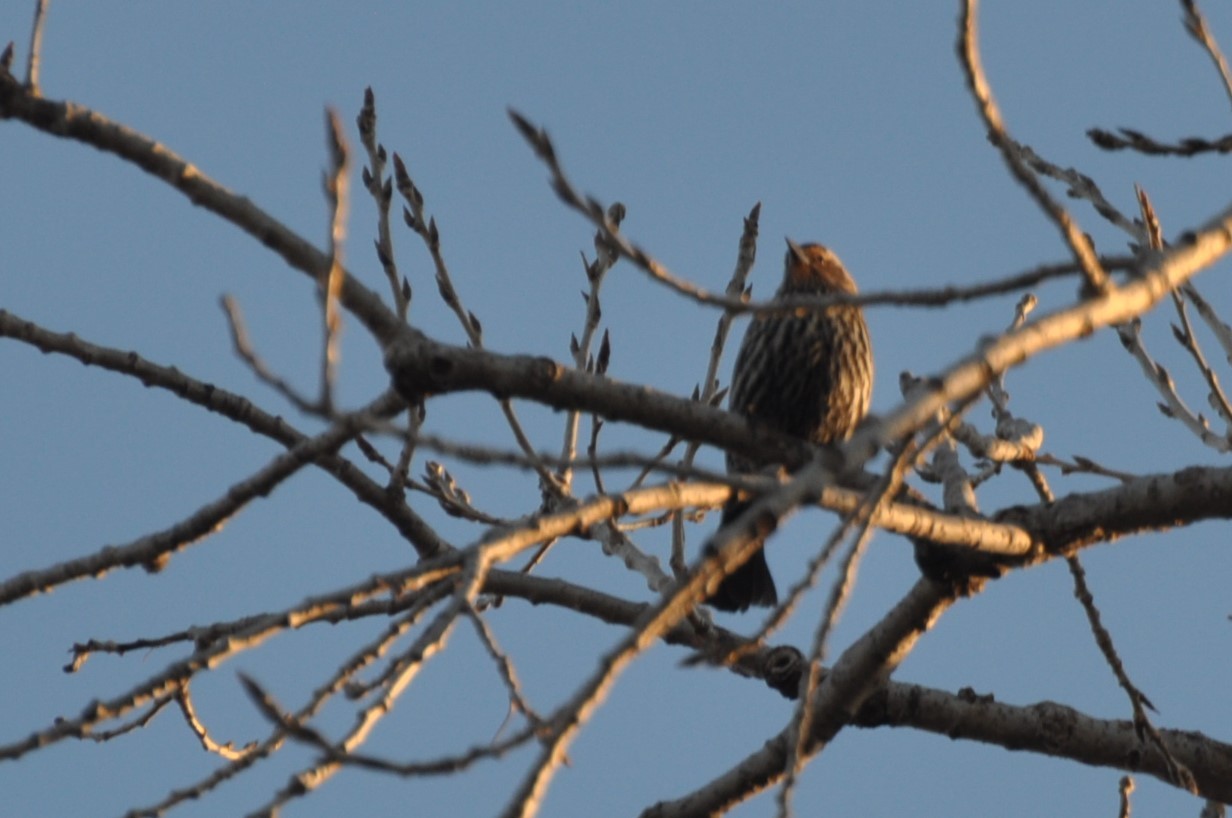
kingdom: Animalia
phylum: Chordata
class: Aves
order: Passeriformes
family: Icteridae
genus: Agelaius
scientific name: Agelaius phoeniceus
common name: Red-winged blackbird
